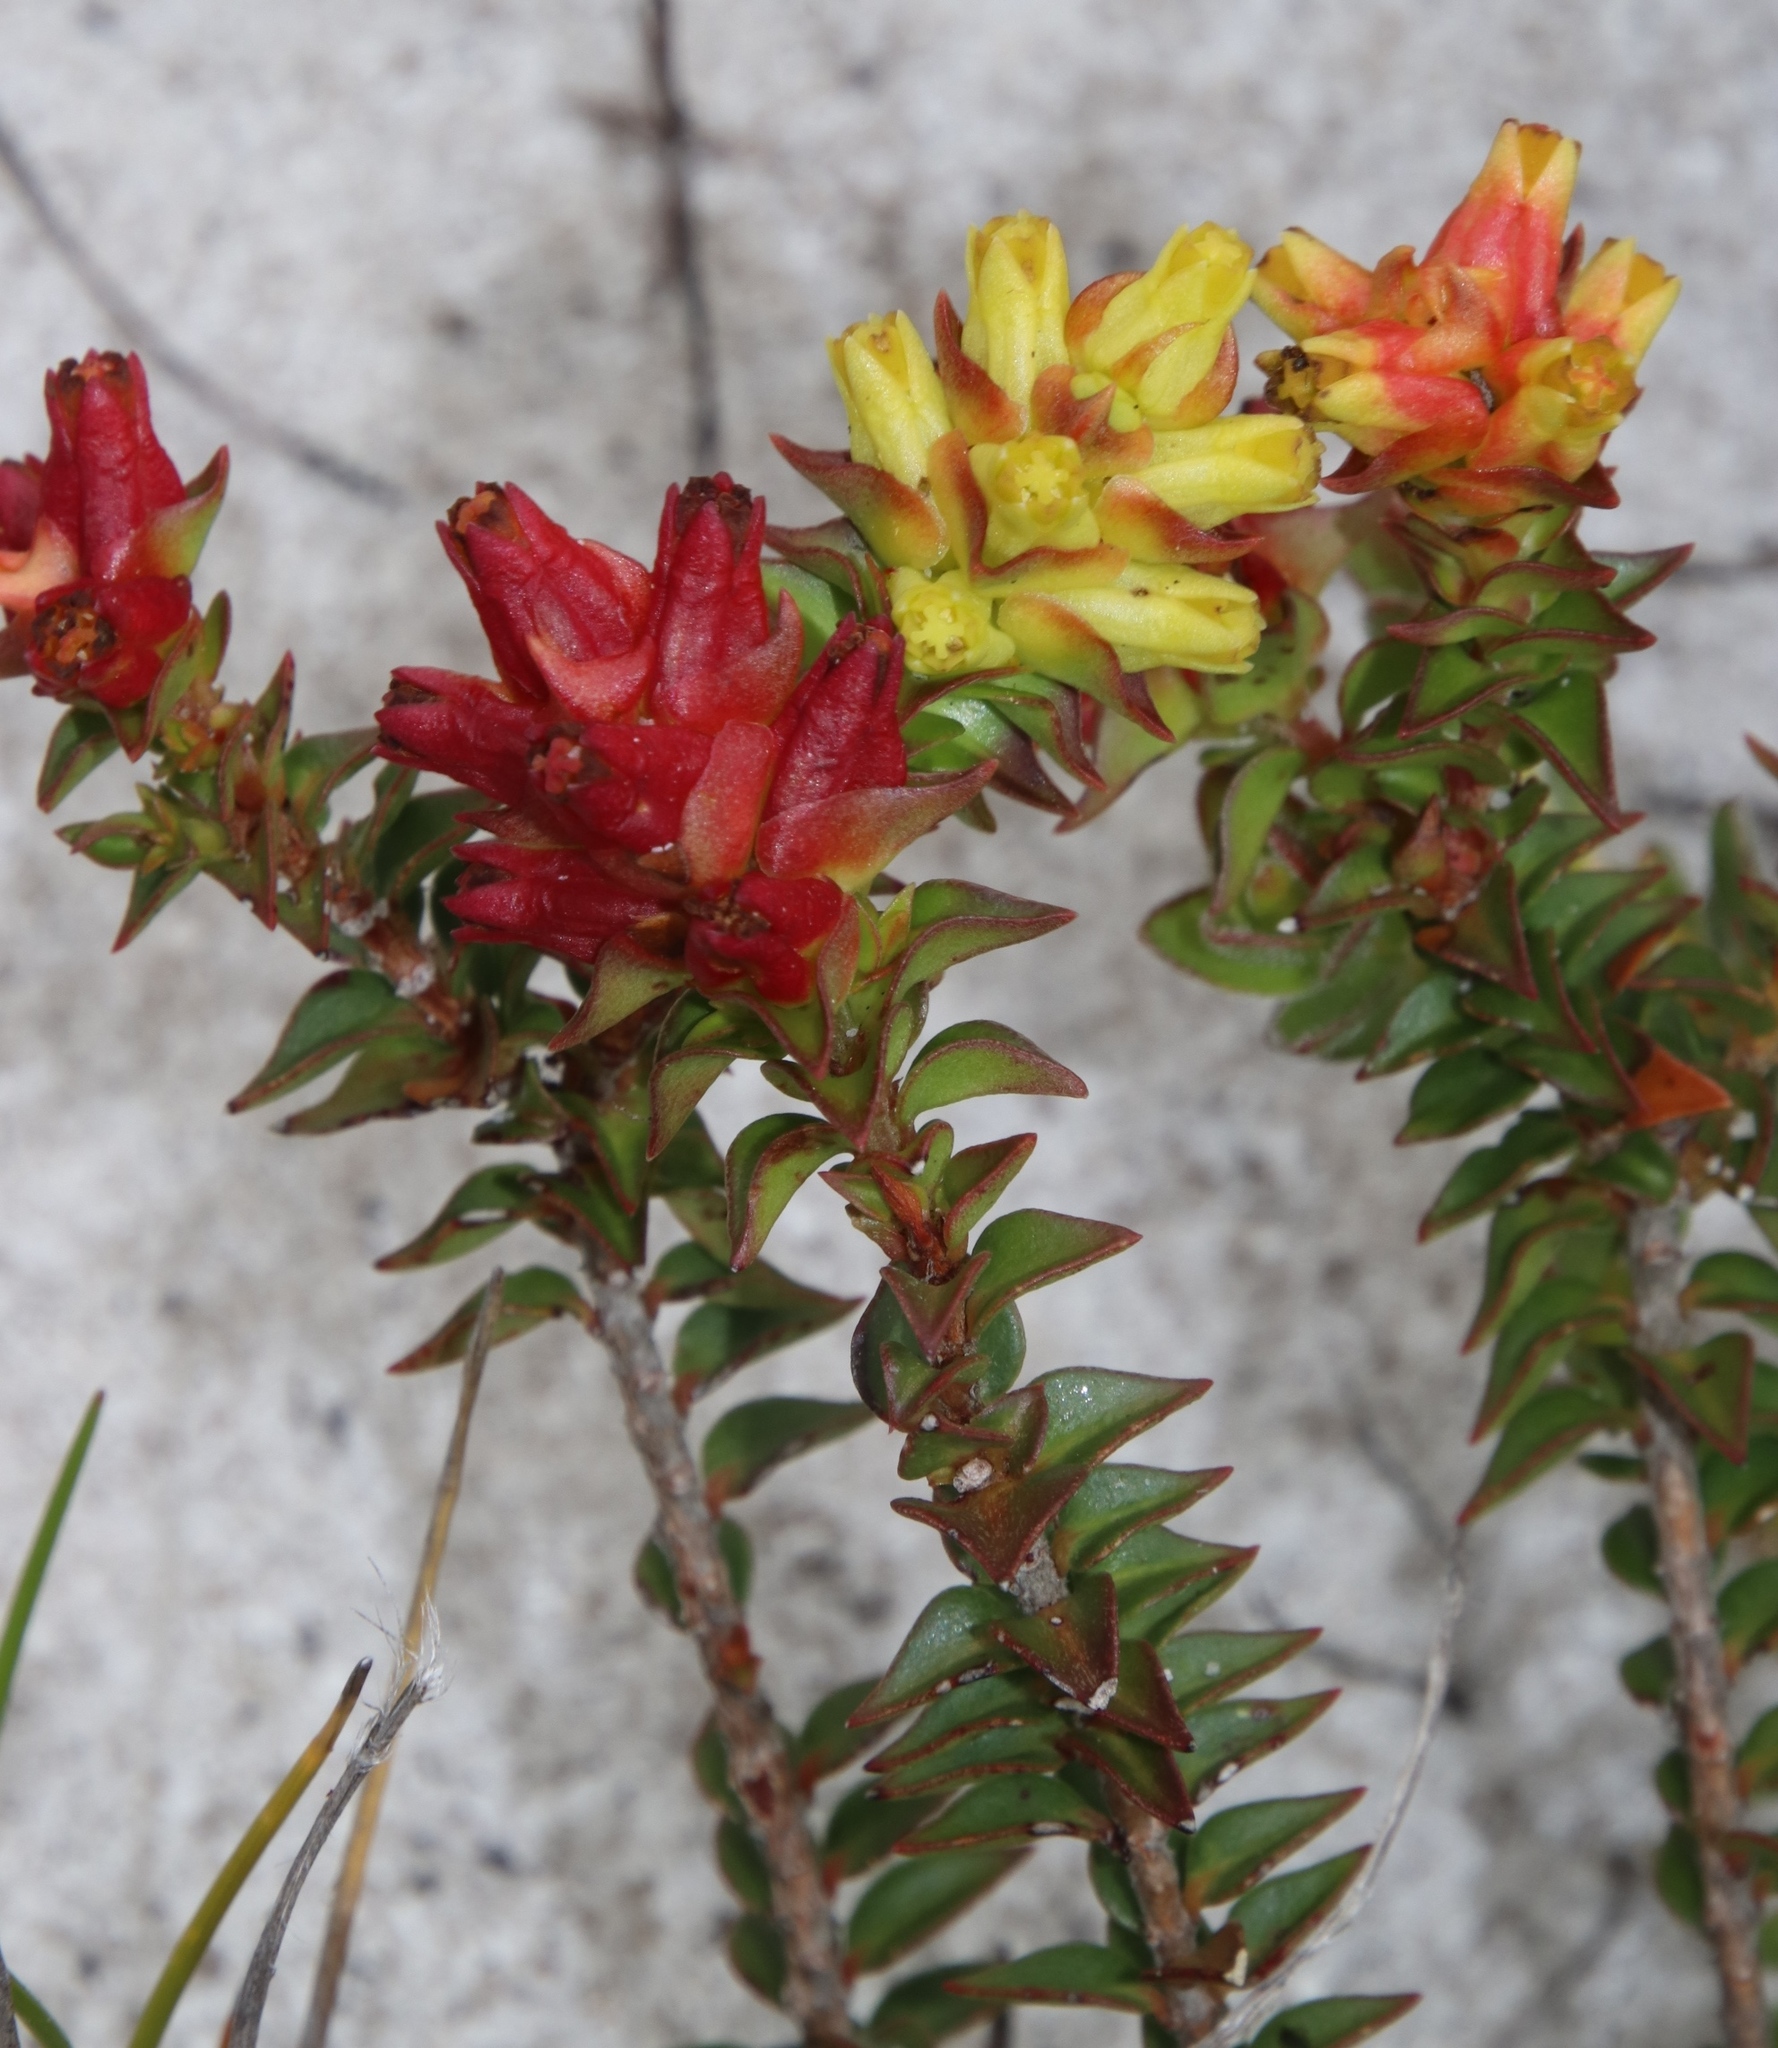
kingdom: Plantae
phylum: Tracheophyta
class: Magnoliopsida
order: Myrtales
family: Penaeaceae
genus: Penaea
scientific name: Penaea mucronata
